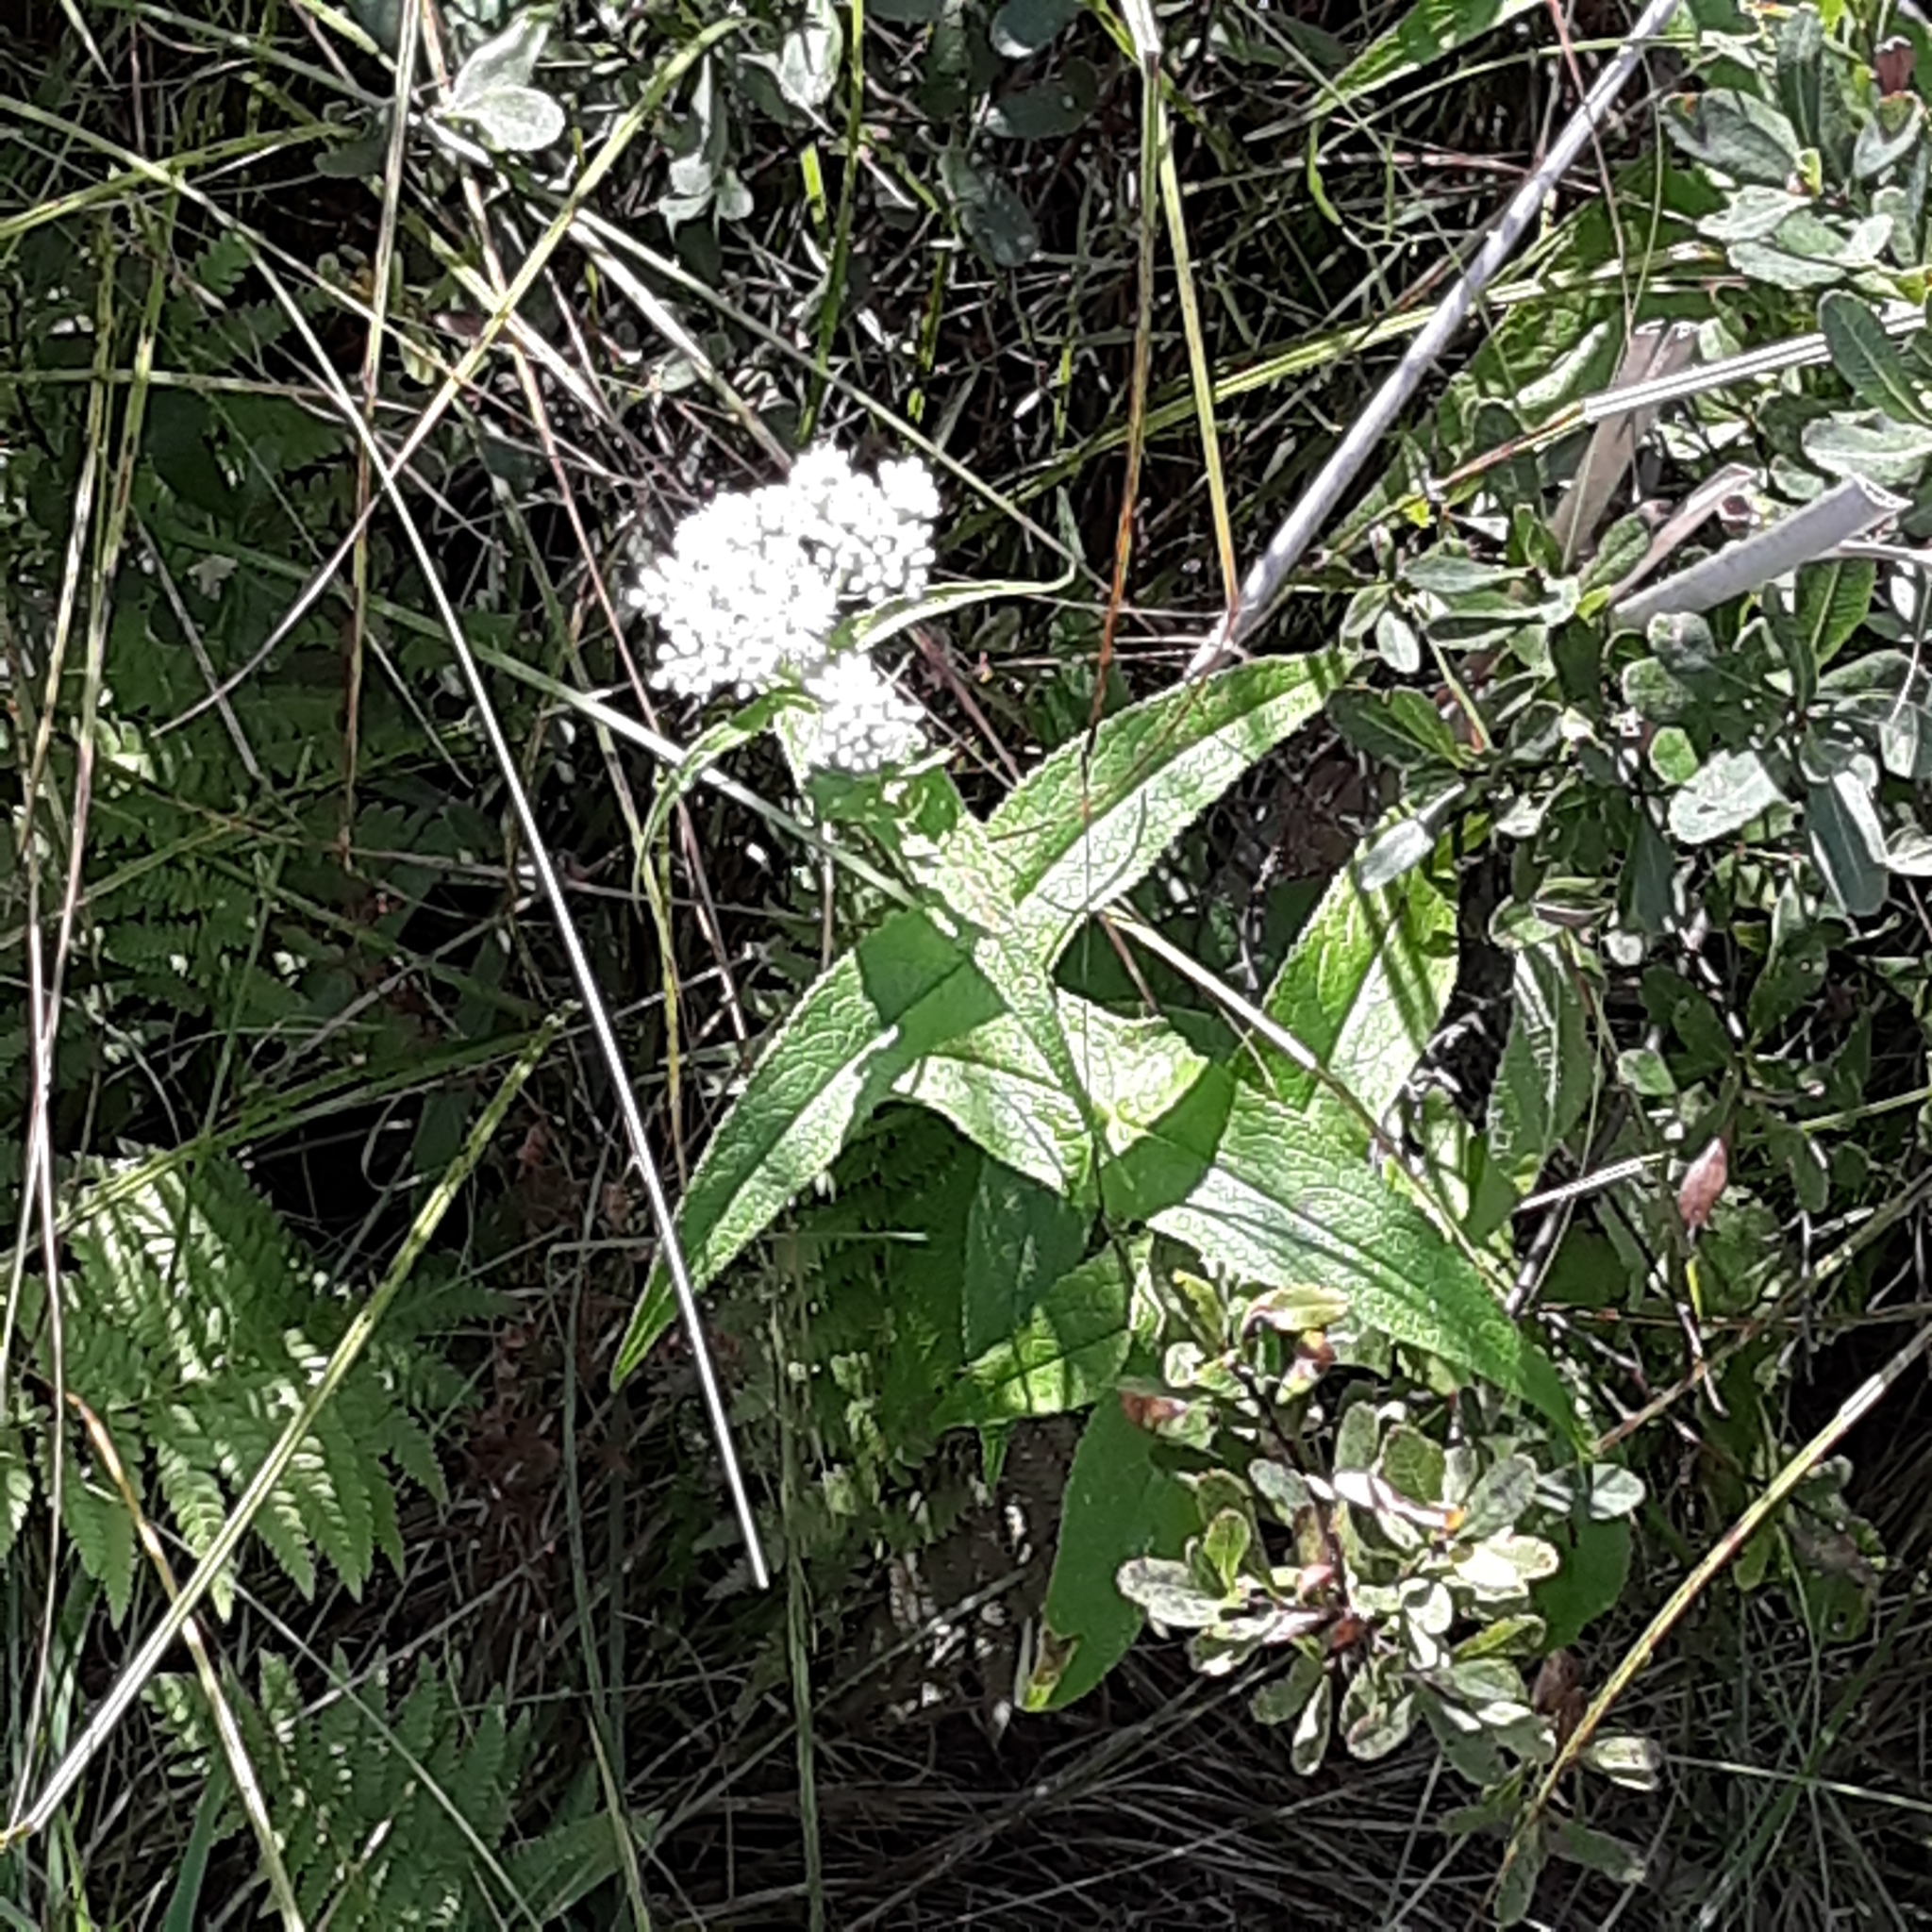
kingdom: Plantae
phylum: Tracheophyta
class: Magnoliopsida
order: Asterales
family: Asteraceae
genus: Eupatorium
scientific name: Eupatorium perfoliatum
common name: Boneset
